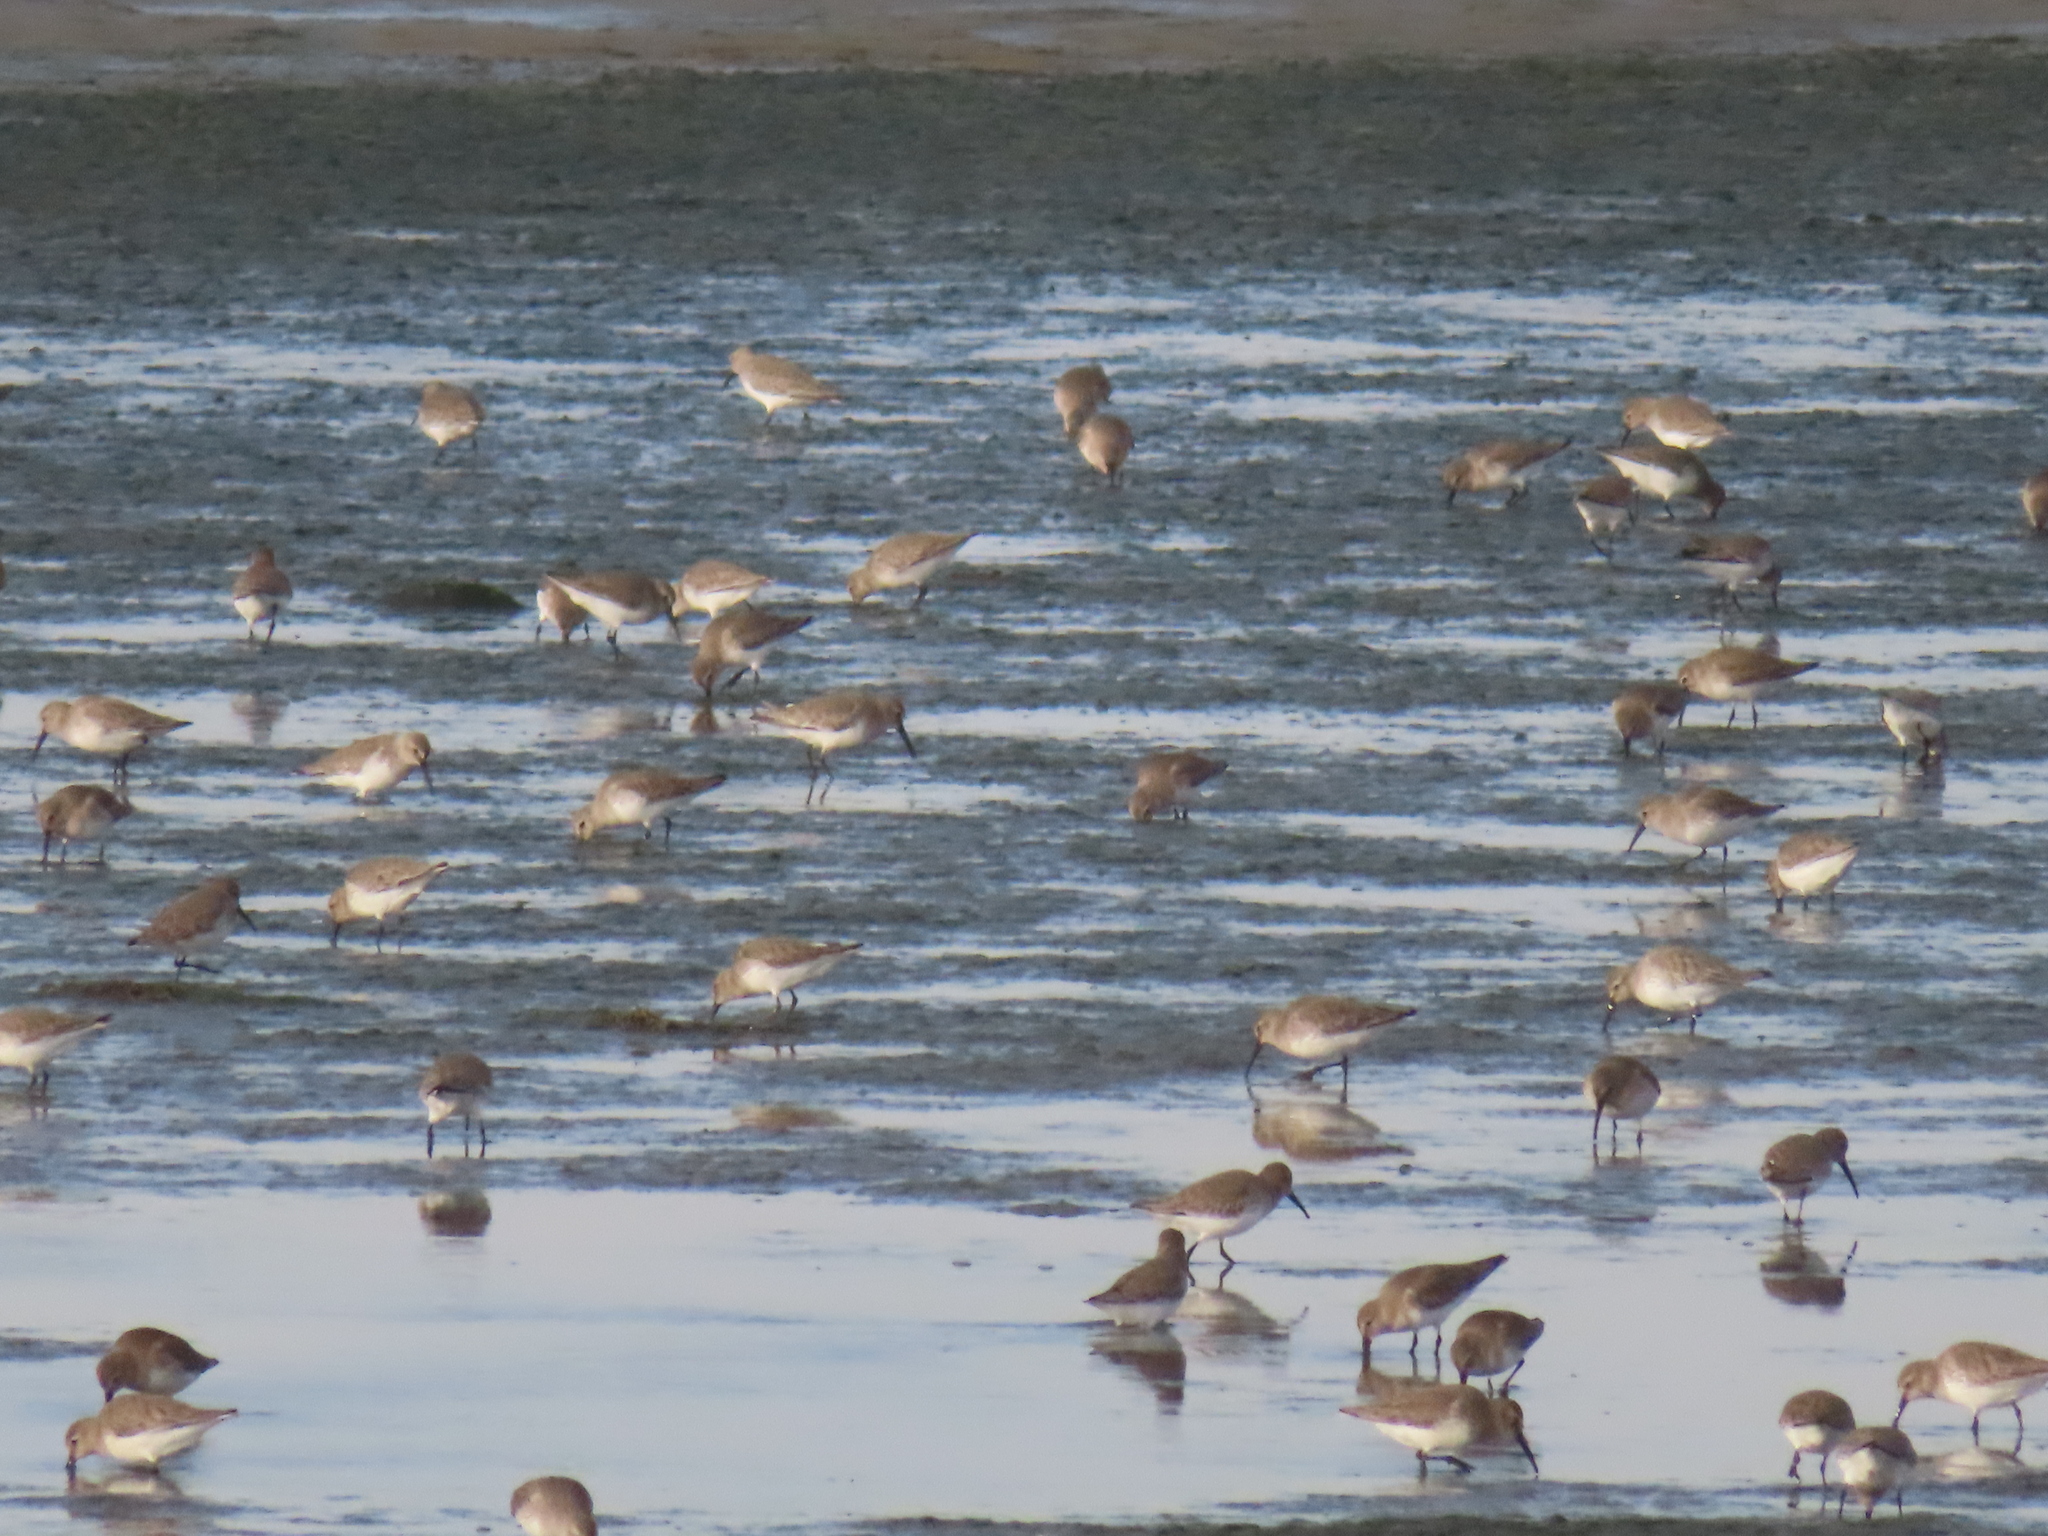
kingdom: Animalia
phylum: Chordata
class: Aves
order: Charadriiformes
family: Scolopacidae
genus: Calidris
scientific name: Calidris alpina
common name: Dunlin
